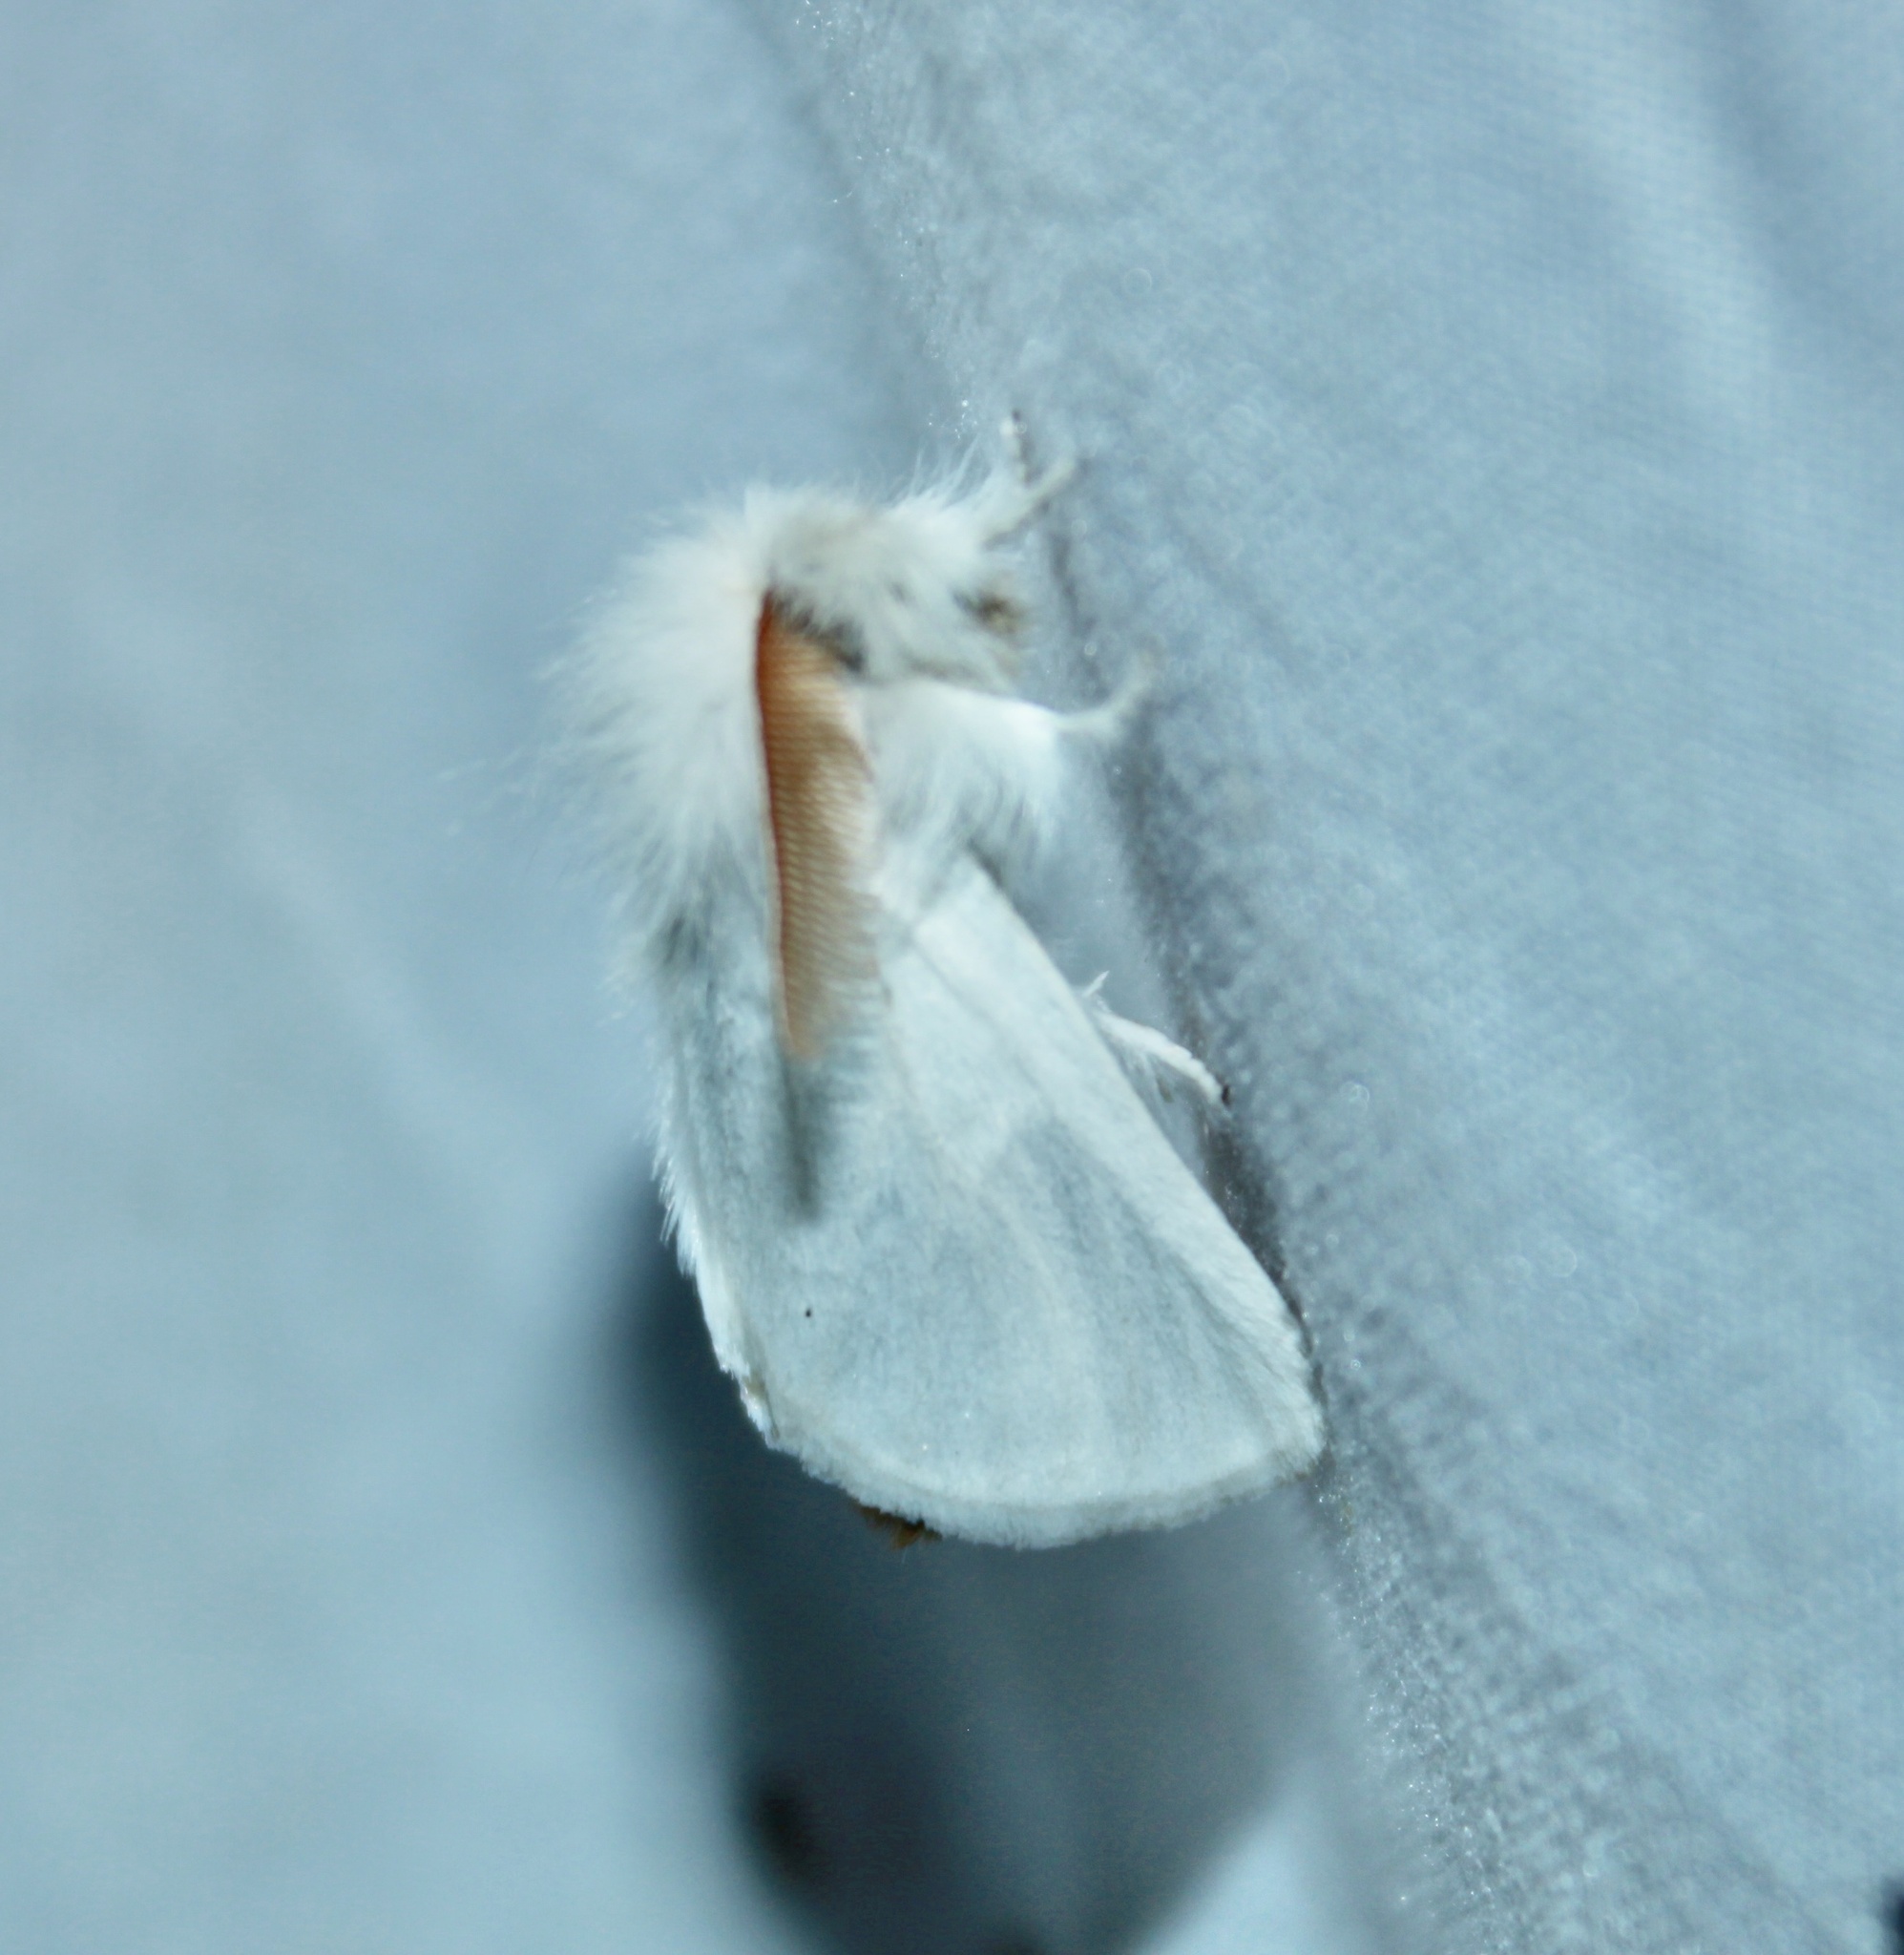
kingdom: Animalia
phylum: Arthropoda
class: Insecta
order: Lepidoptera
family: Erebidae
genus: Euproctis
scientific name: Euproctis chrysorrhoea
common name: Brown-tail
